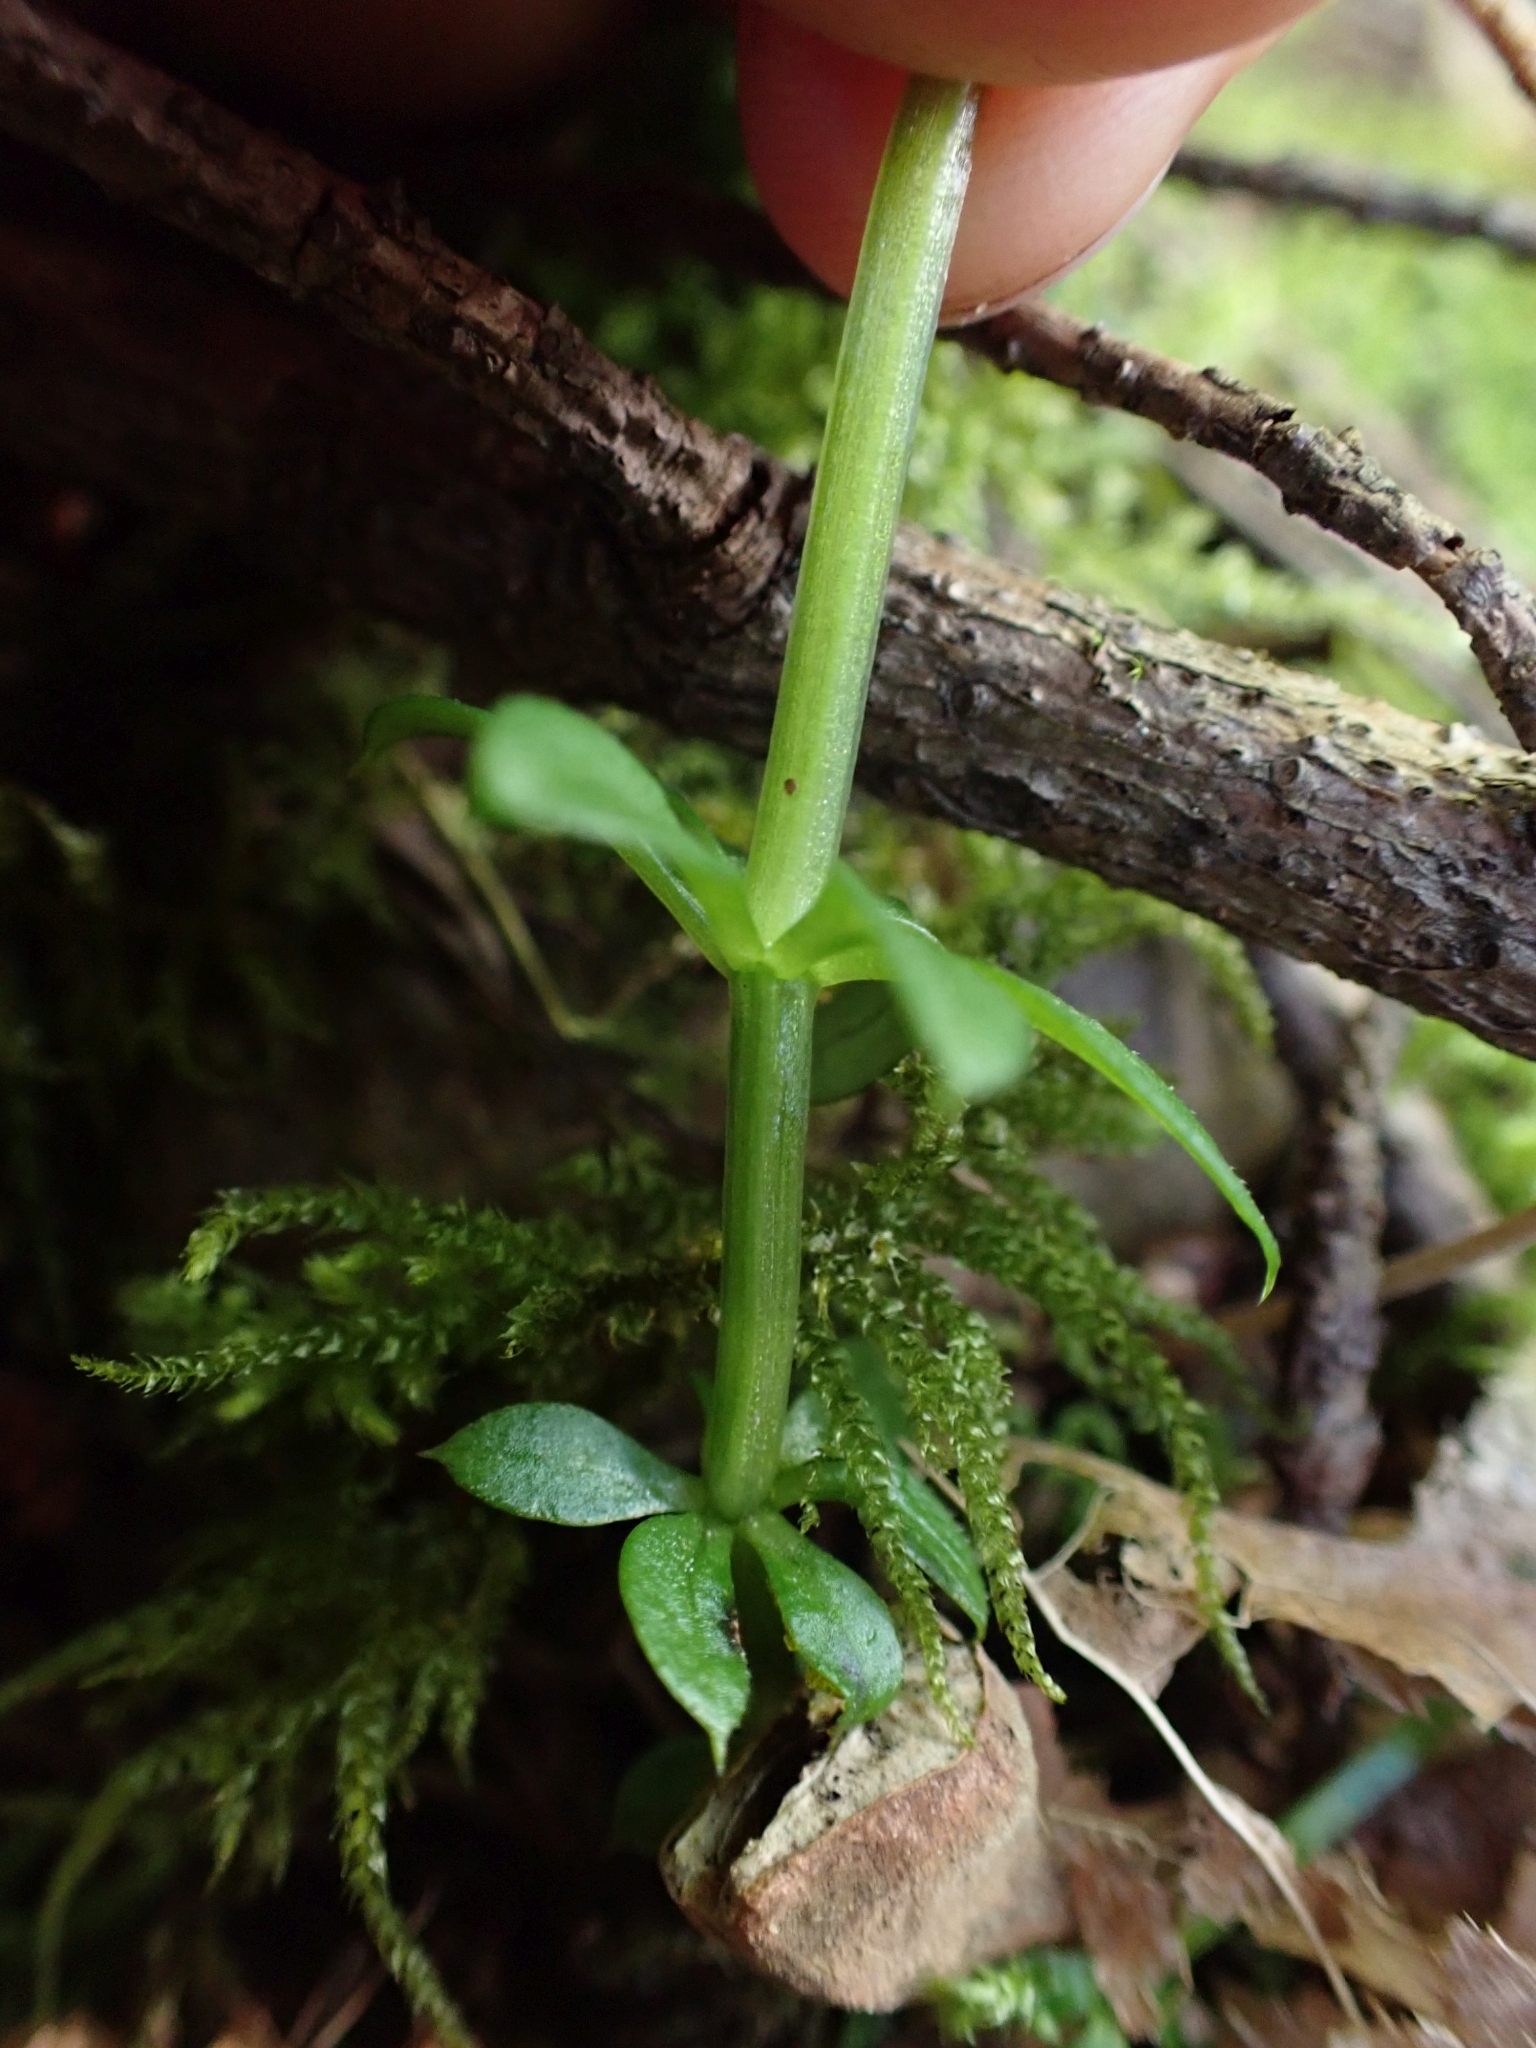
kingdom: Plantae
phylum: Tracheophyta
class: Magnoliopsida
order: Gentianales
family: Rubiaceae
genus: Galium
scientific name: Galium triflorum
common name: Fragrant bedstraw
